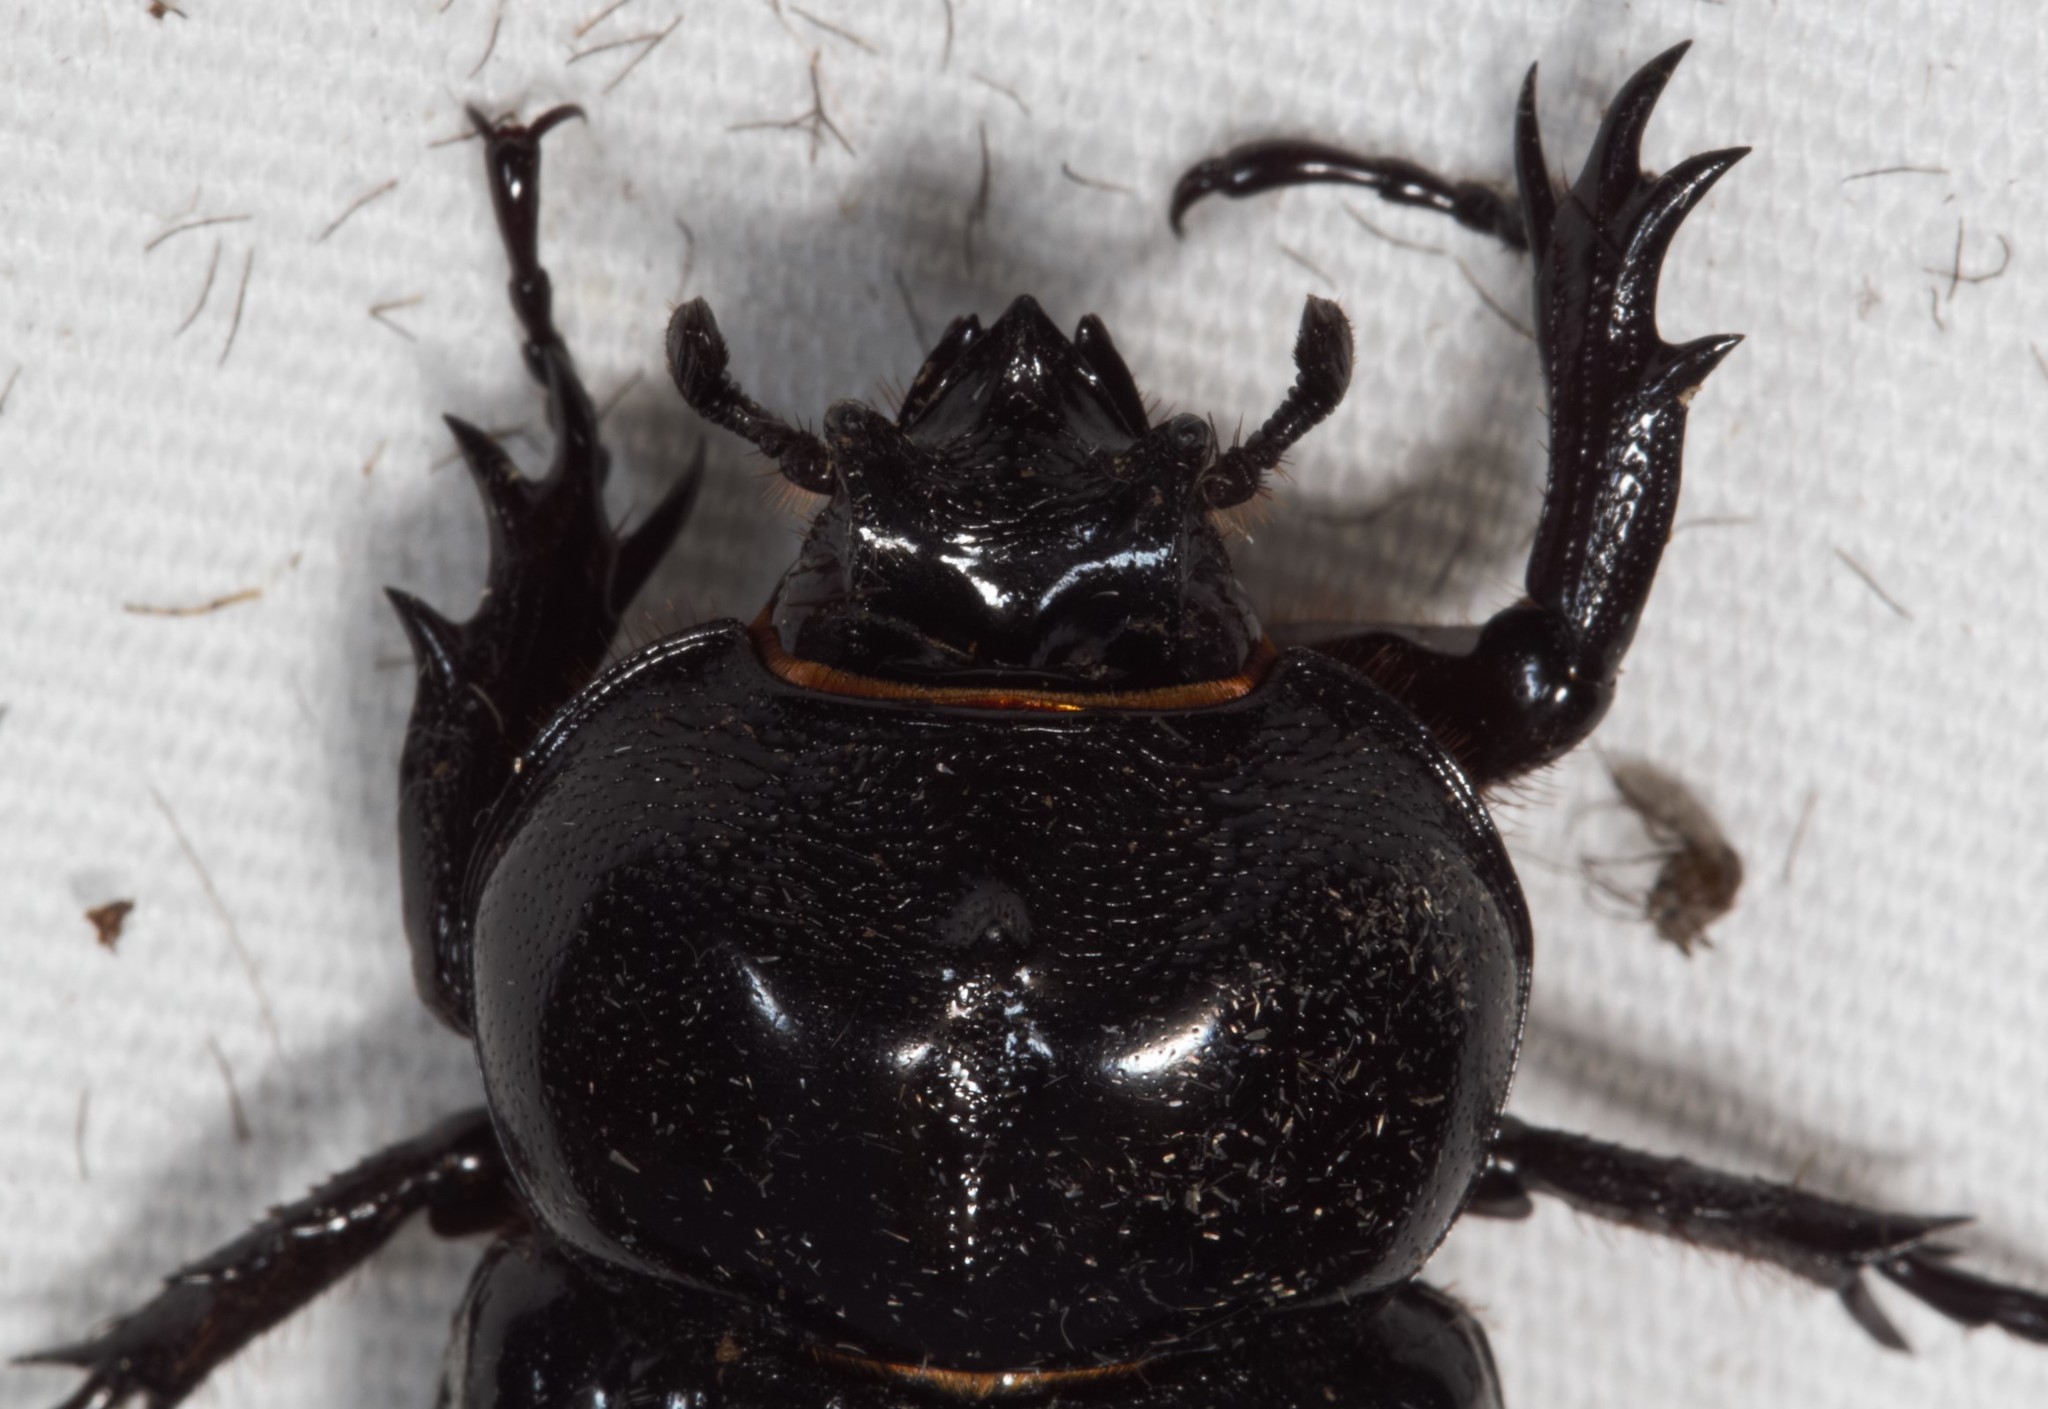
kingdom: Animalia
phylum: Arthropoda
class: Insecta
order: Coleoptera
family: Scarabaeidae
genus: Phileurus
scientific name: Phileurus truncatus
